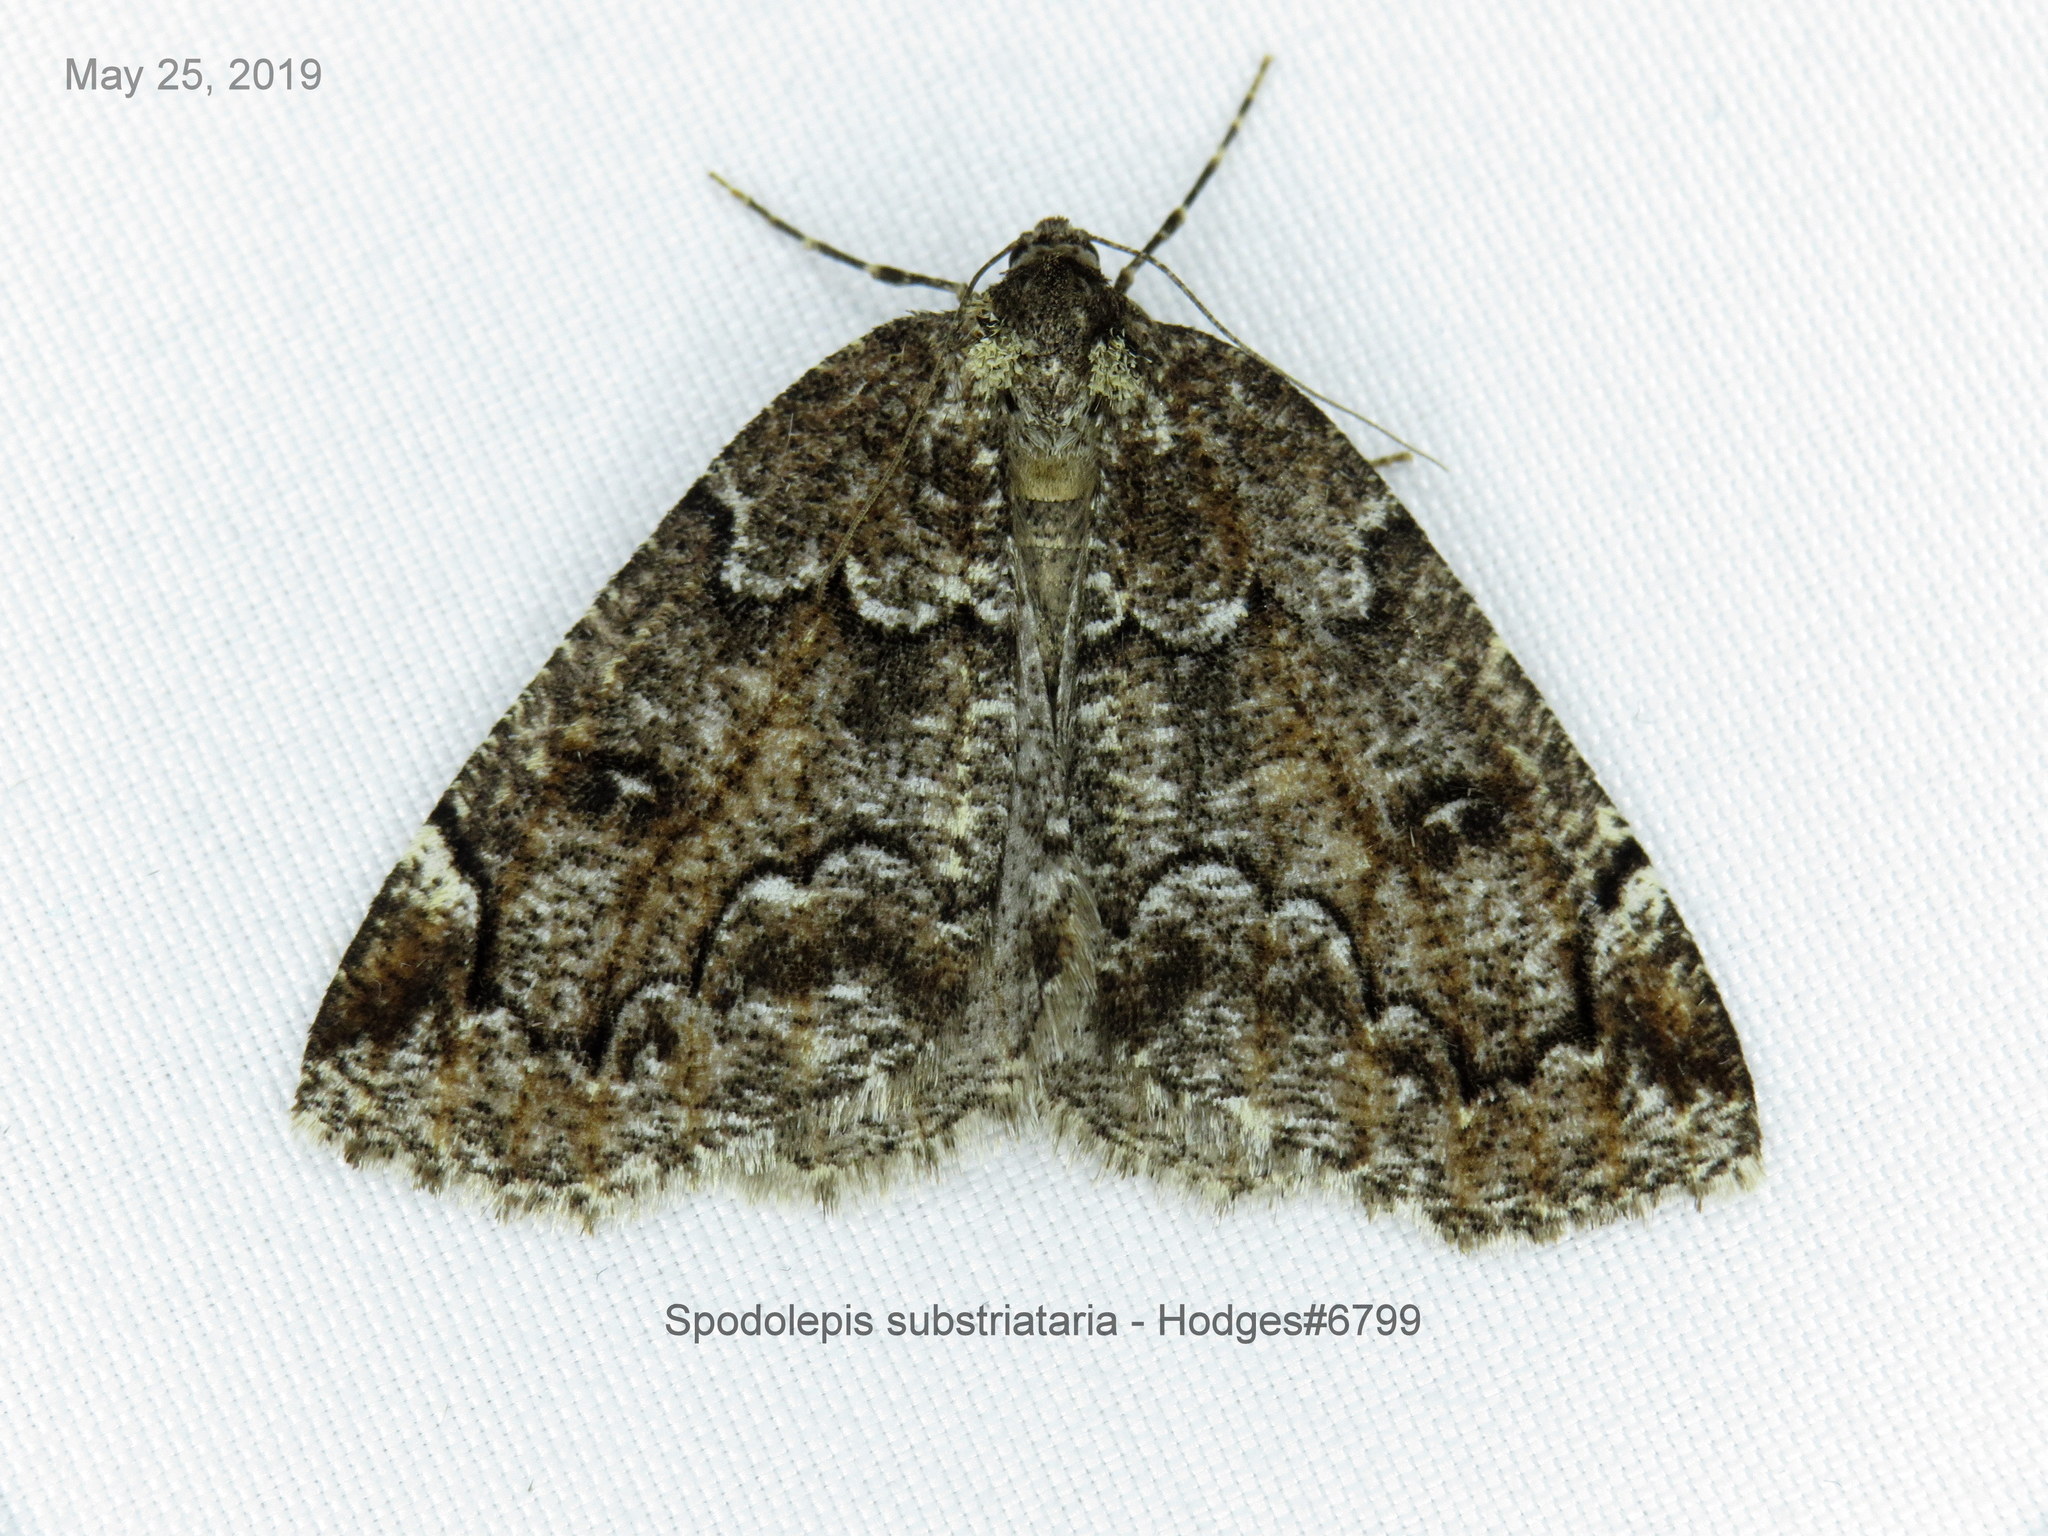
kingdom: Animalia
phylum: Arthropoda
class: Insecta
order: Lepidoptera
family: Geometridae
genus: Spodolepis
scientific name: Spodolepis substriataria
